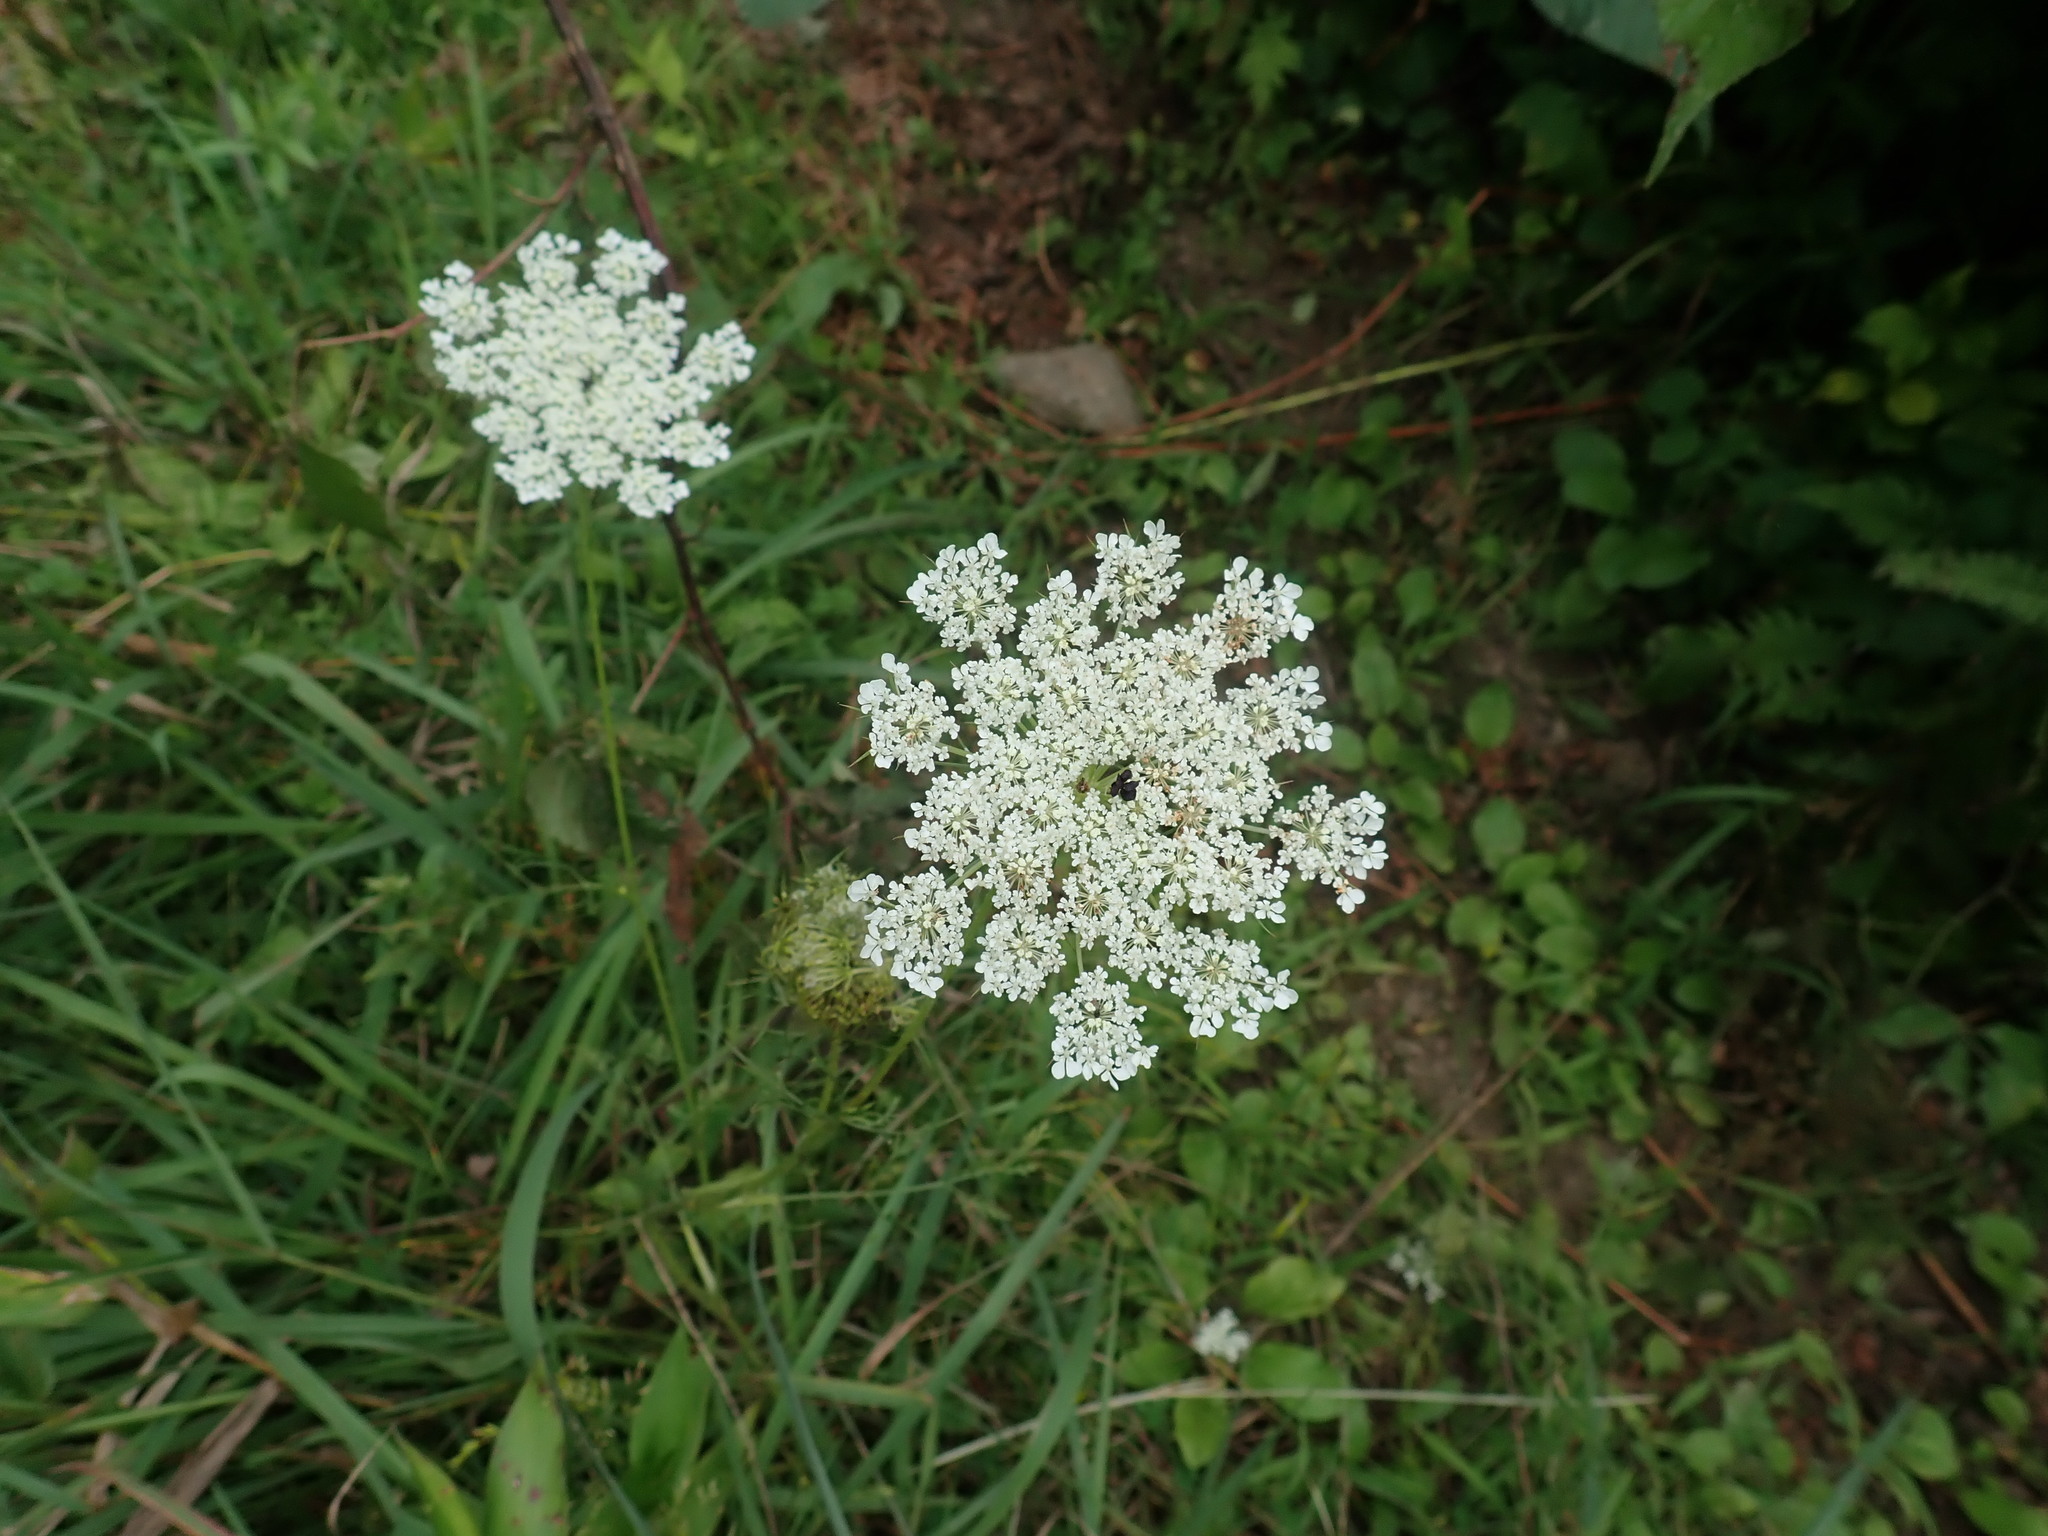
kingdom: Plantae
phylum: Tracheophyta
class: Magnoliopsida
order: Apiales
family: Apiaceae
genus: Daucus
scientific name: Daucus carota
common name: Wild carrot
